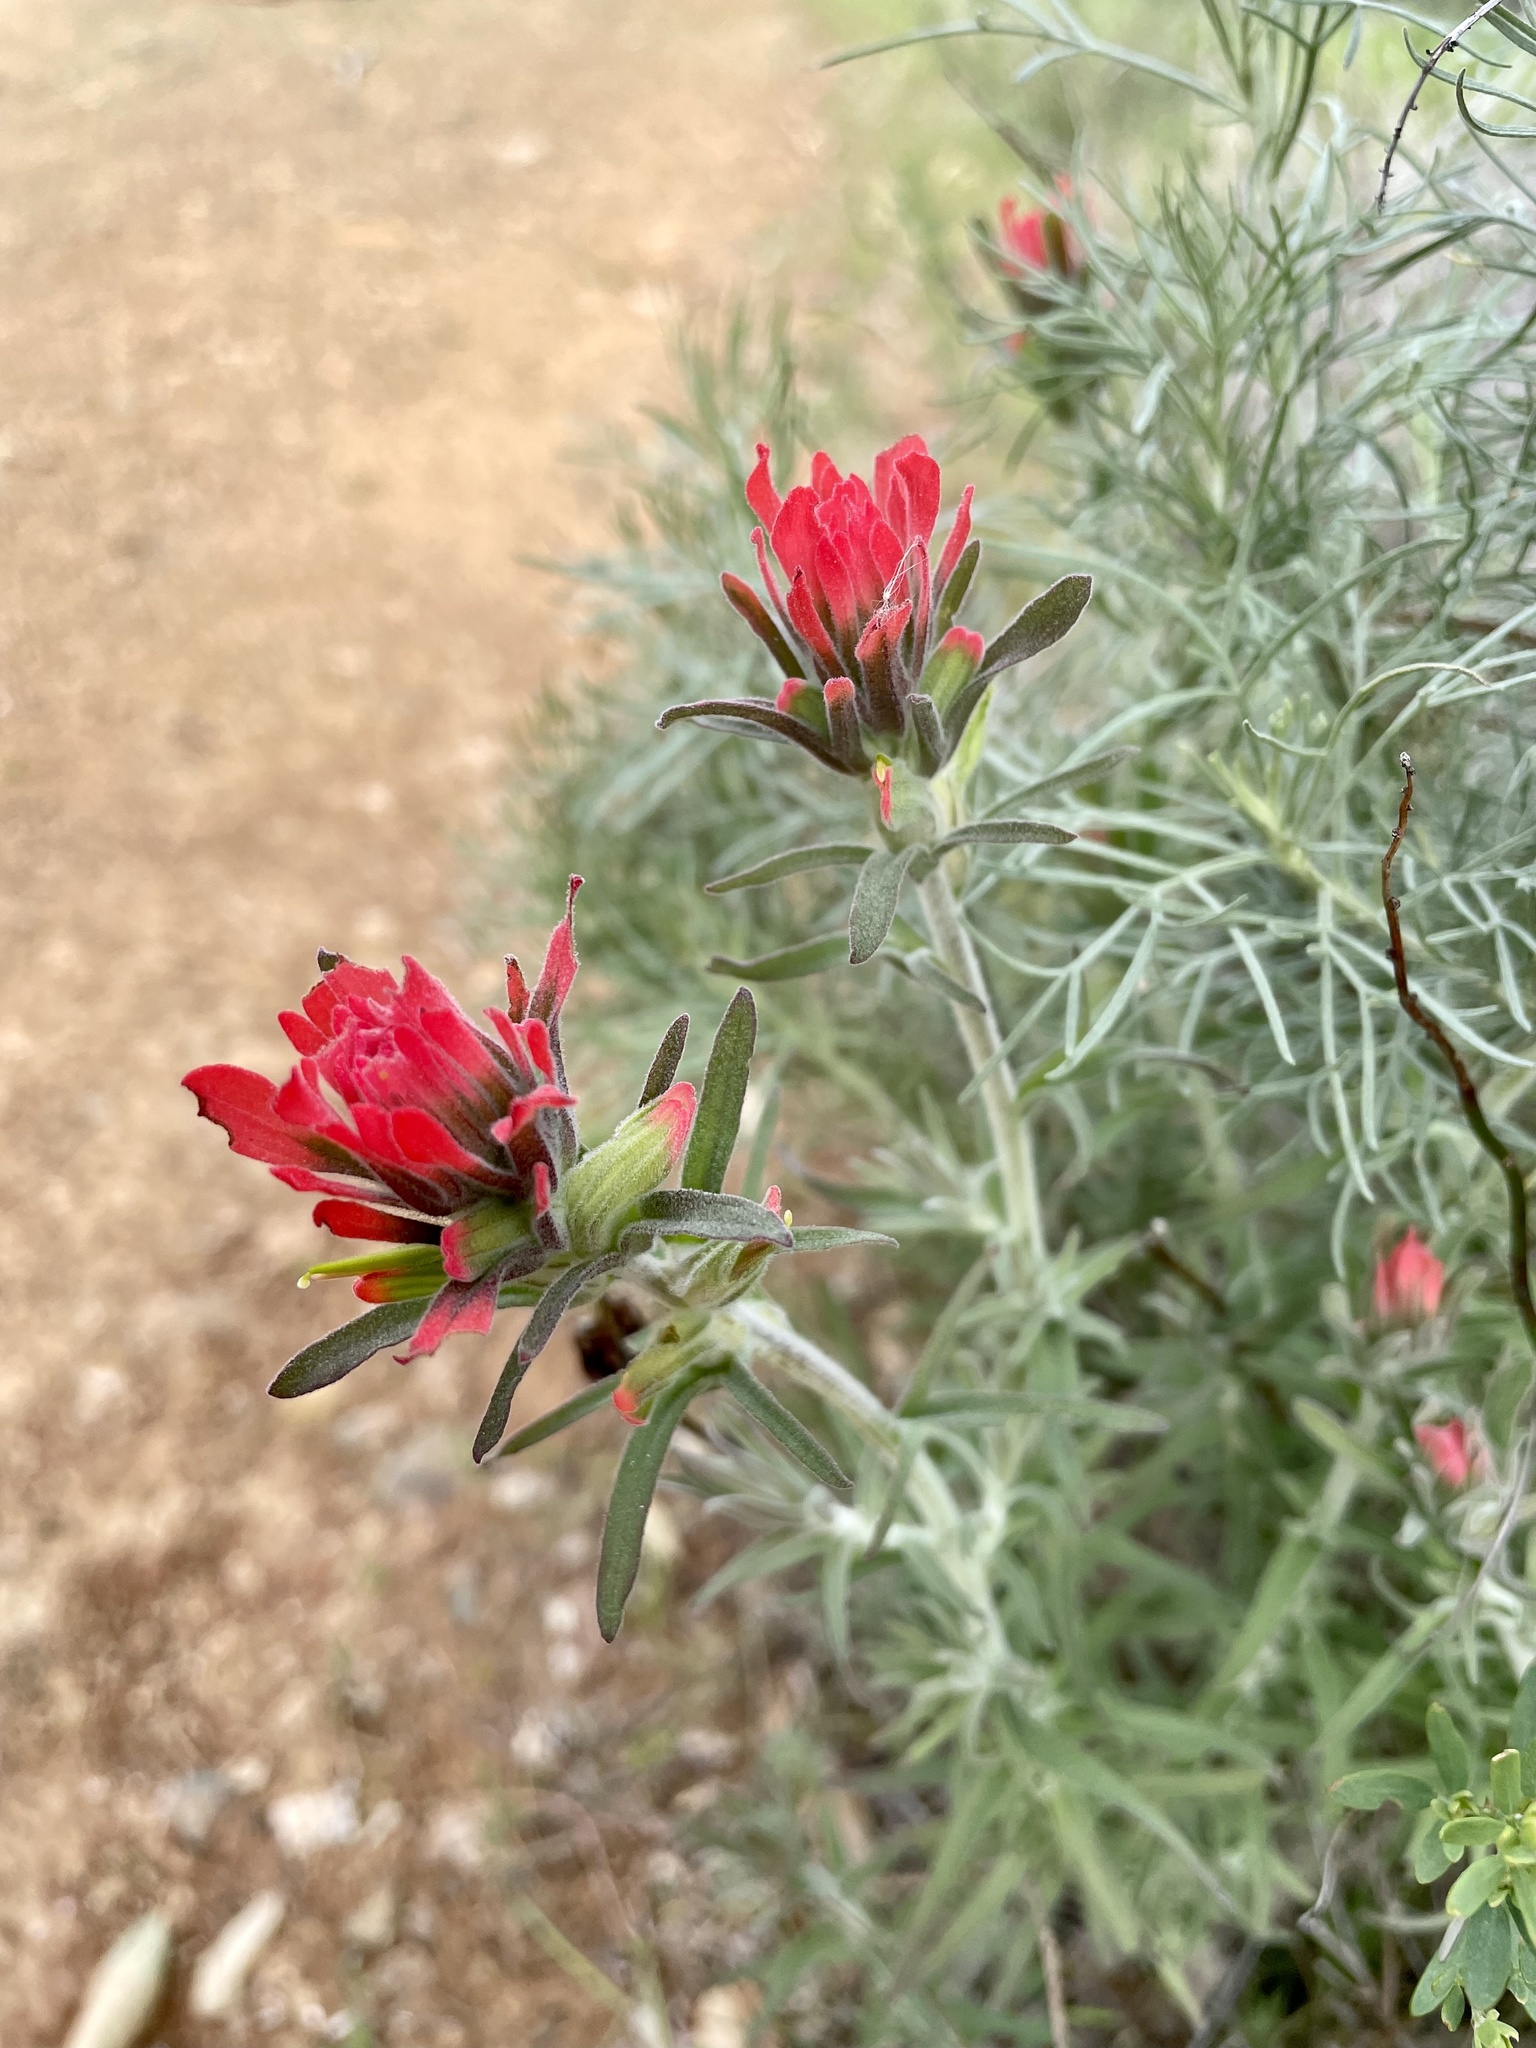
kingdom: Plantae
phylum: Tracheophyta
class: Magnoliopsida
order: Lamiales
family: Orobanchaceae
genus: Castilleja
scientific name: Castilleja foliolosa
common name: Woolly indian paintbrush
